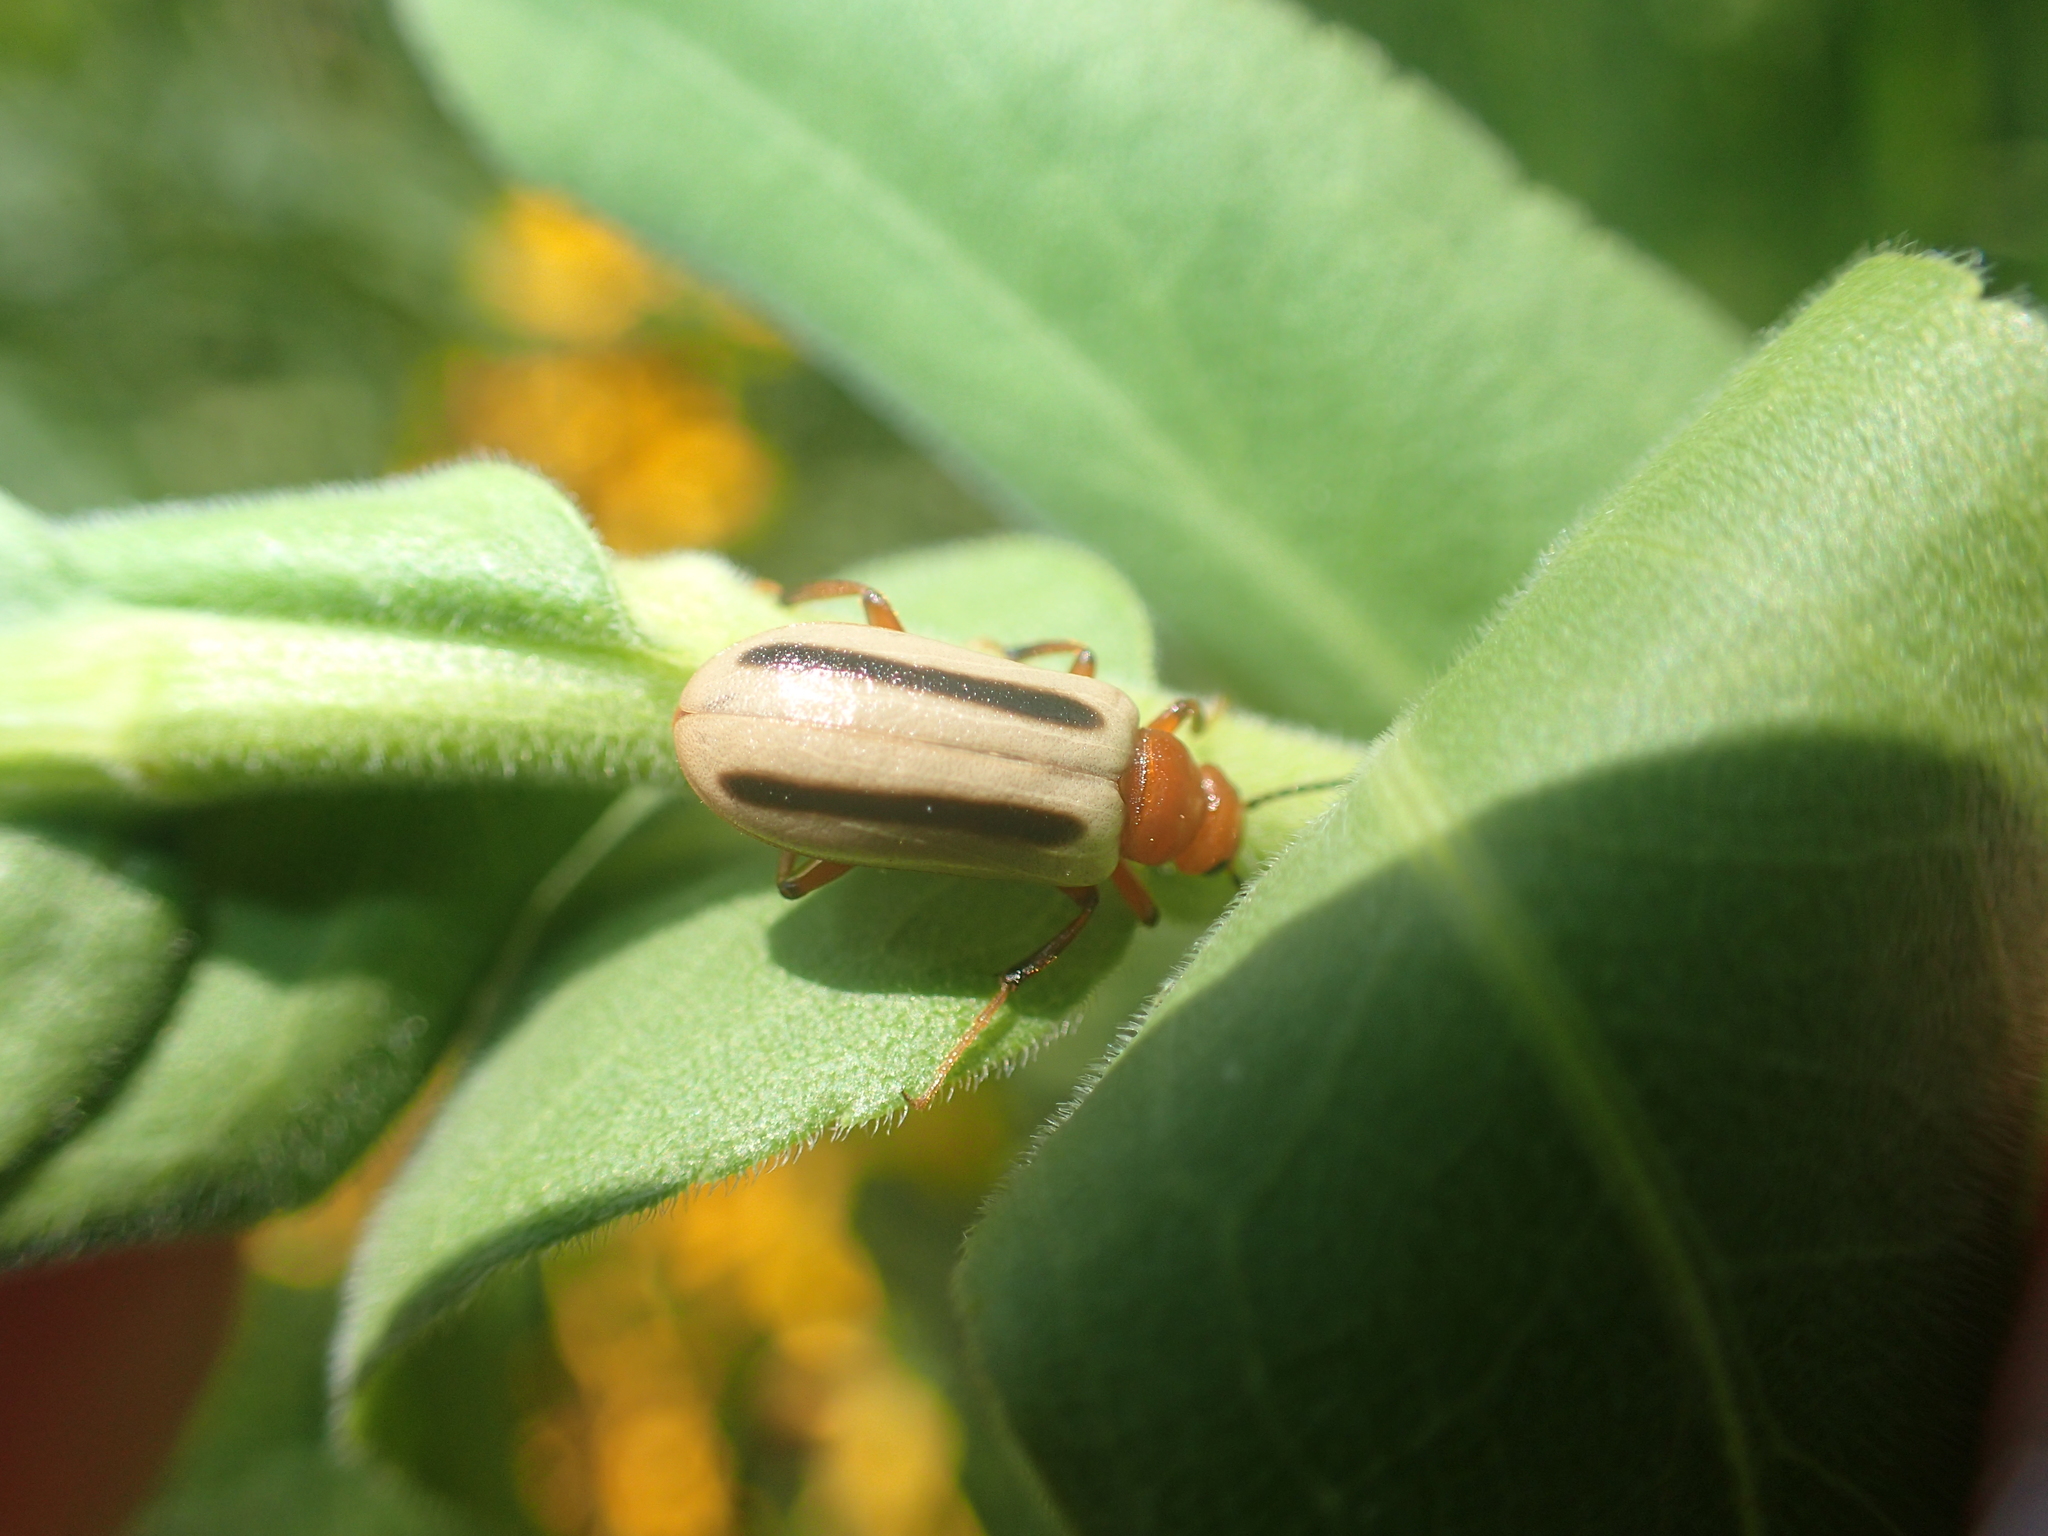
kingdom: Animalia
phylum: Arthropoda
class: Insecta
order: Coleoptera
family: Meloidae
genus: Zonitis
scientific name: Zonitis bilineata
